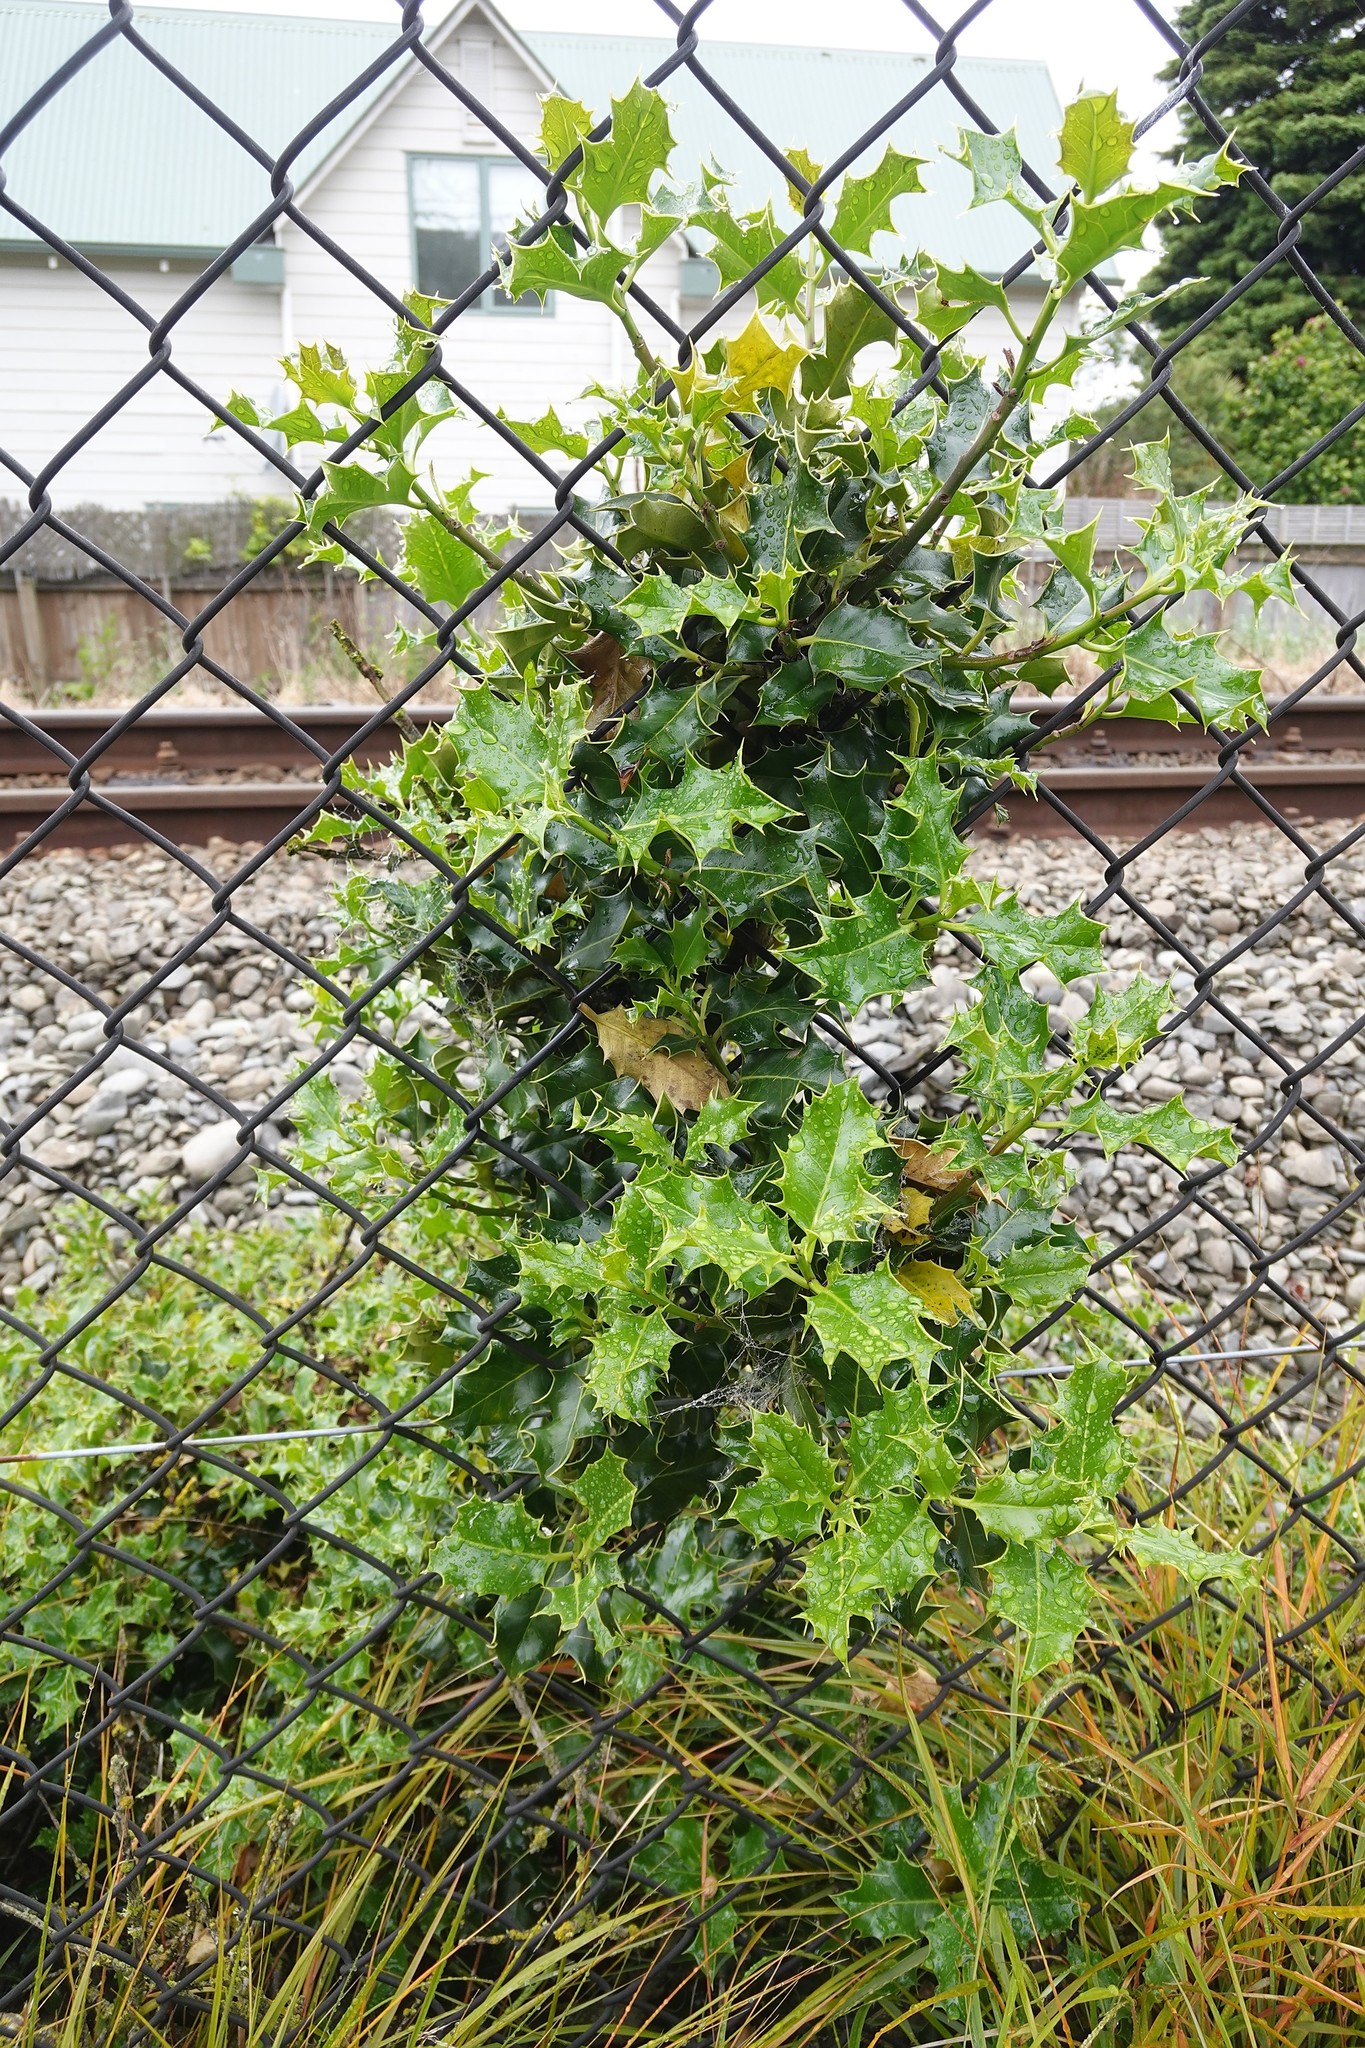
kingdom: Plantae
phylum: Tracheophyta
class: Magnoliopsida
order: Aquifoliales
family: Aquifoliaceae
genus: Ilex
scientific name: Ilex aquifolium
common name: English holly
